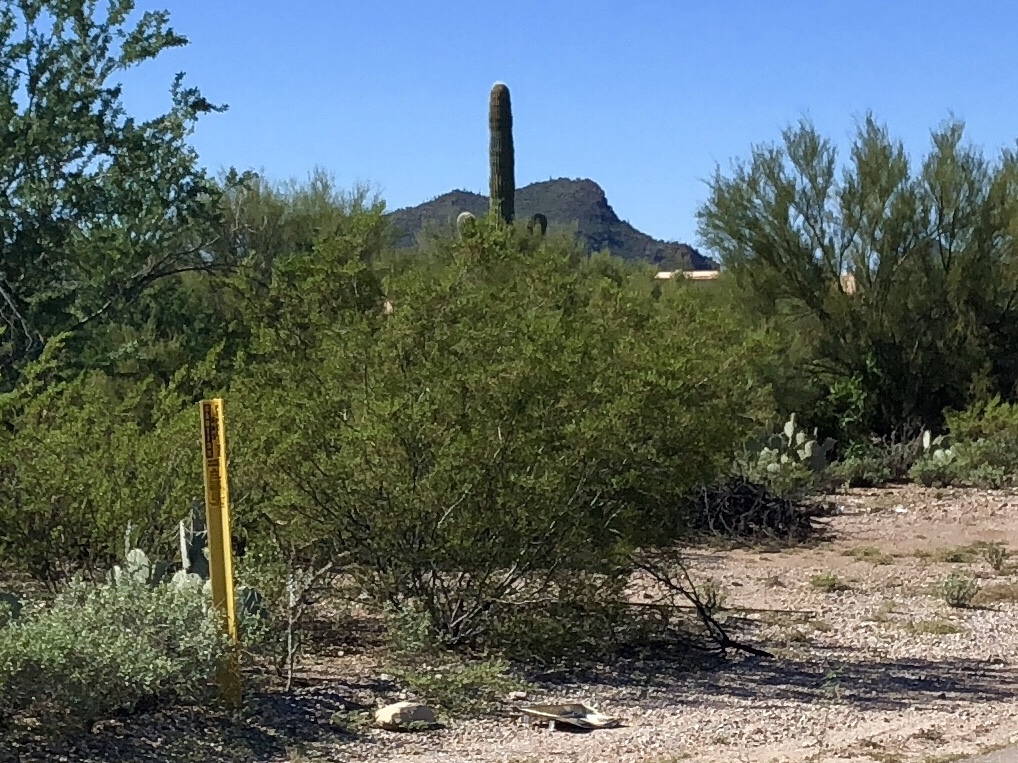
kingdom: Plantae
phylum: Tracheophyta
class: Magnoliopsida
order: Zygophyllales
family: Zygophyllaceae
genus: Larrea
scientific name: Larrea tridentata
